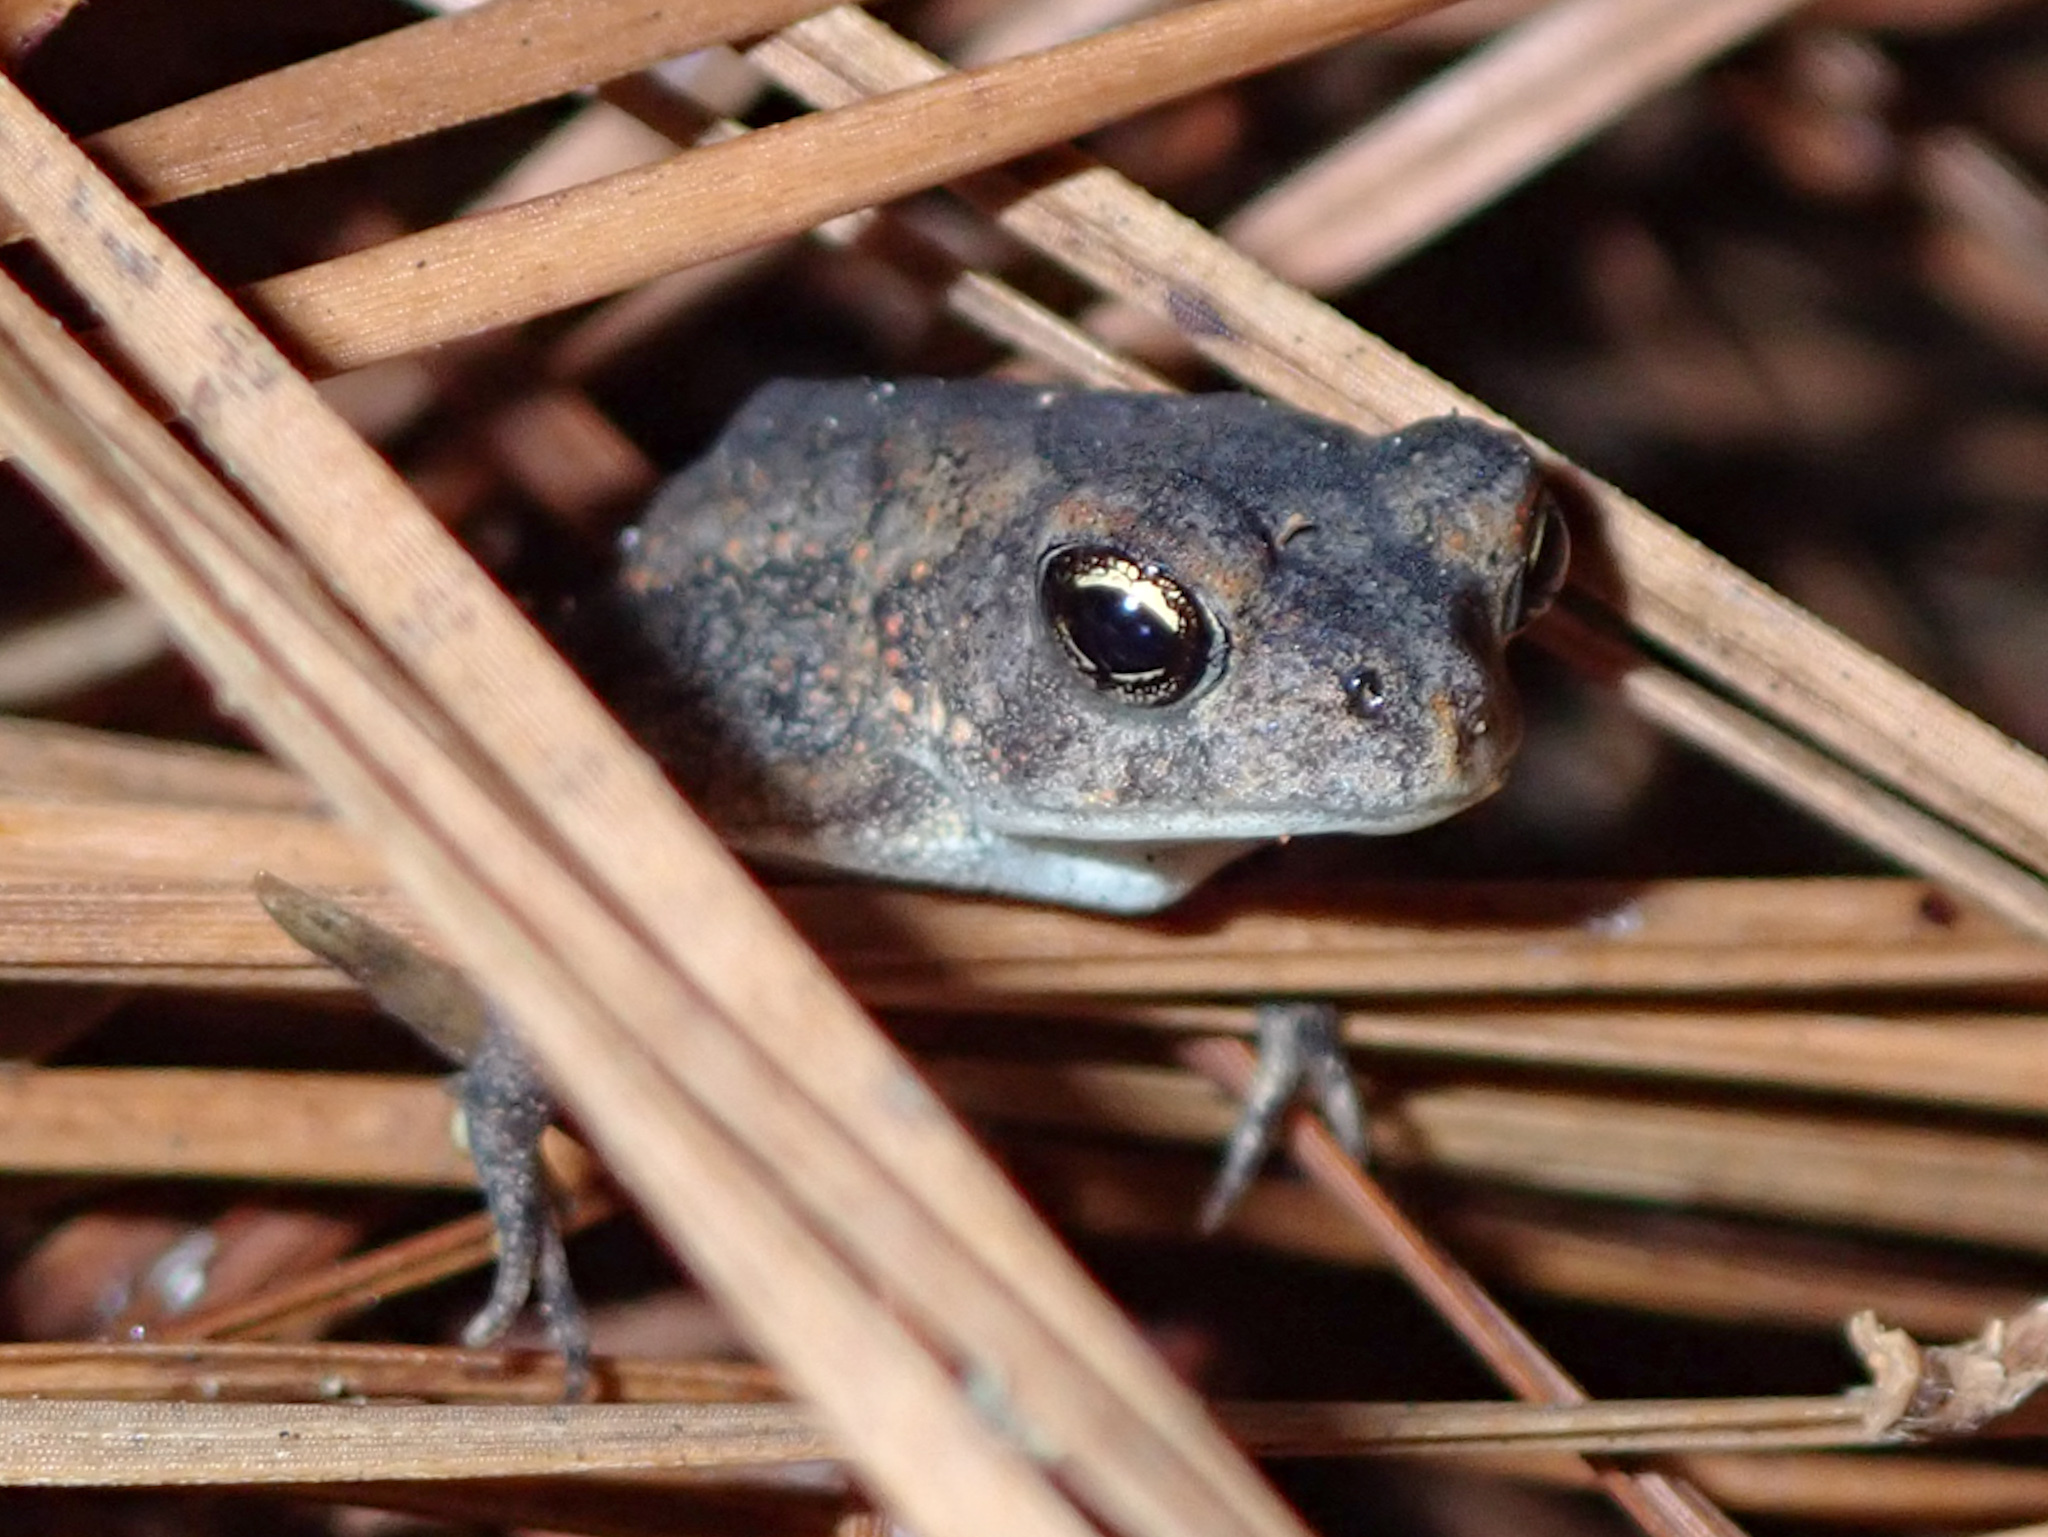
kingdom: Animalia
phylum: Chordata
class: Amphibia
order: Anura
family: Bufonidae
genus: Anaxyrus
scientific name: Anaxyrus terrestris
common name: Southern toad
